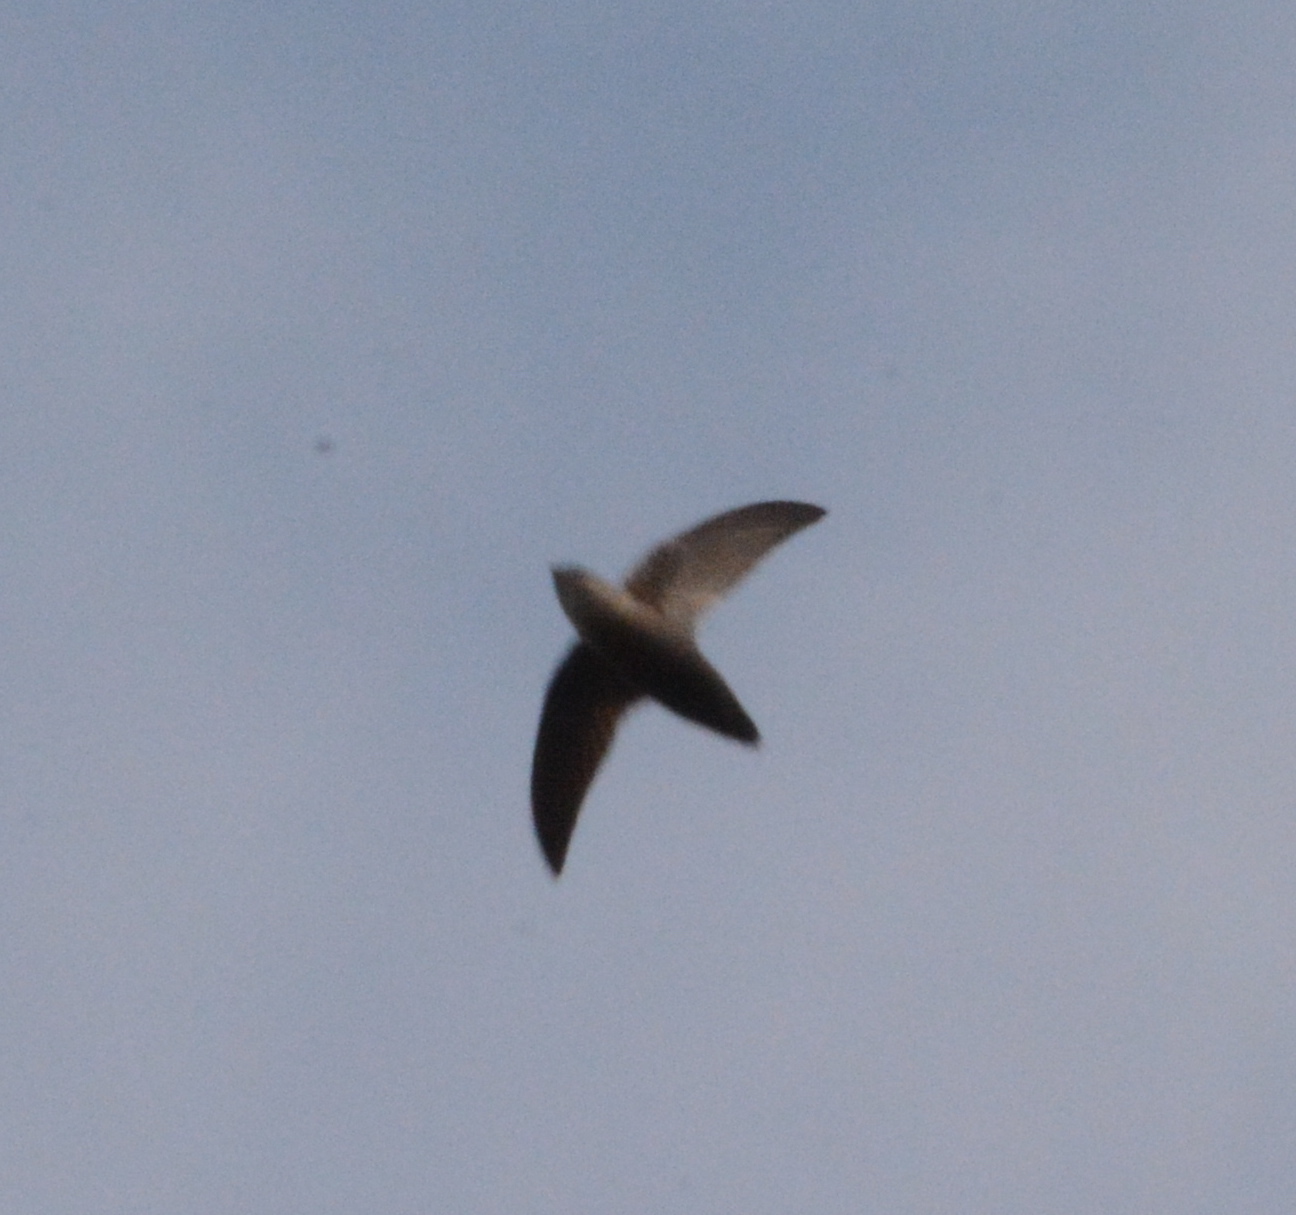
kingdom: Animalia
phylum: Chordata
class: Aves
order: Apodiformes
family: Apodidae
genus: Chaetura
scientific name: Chaetura pelagica
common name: Chimney swift
